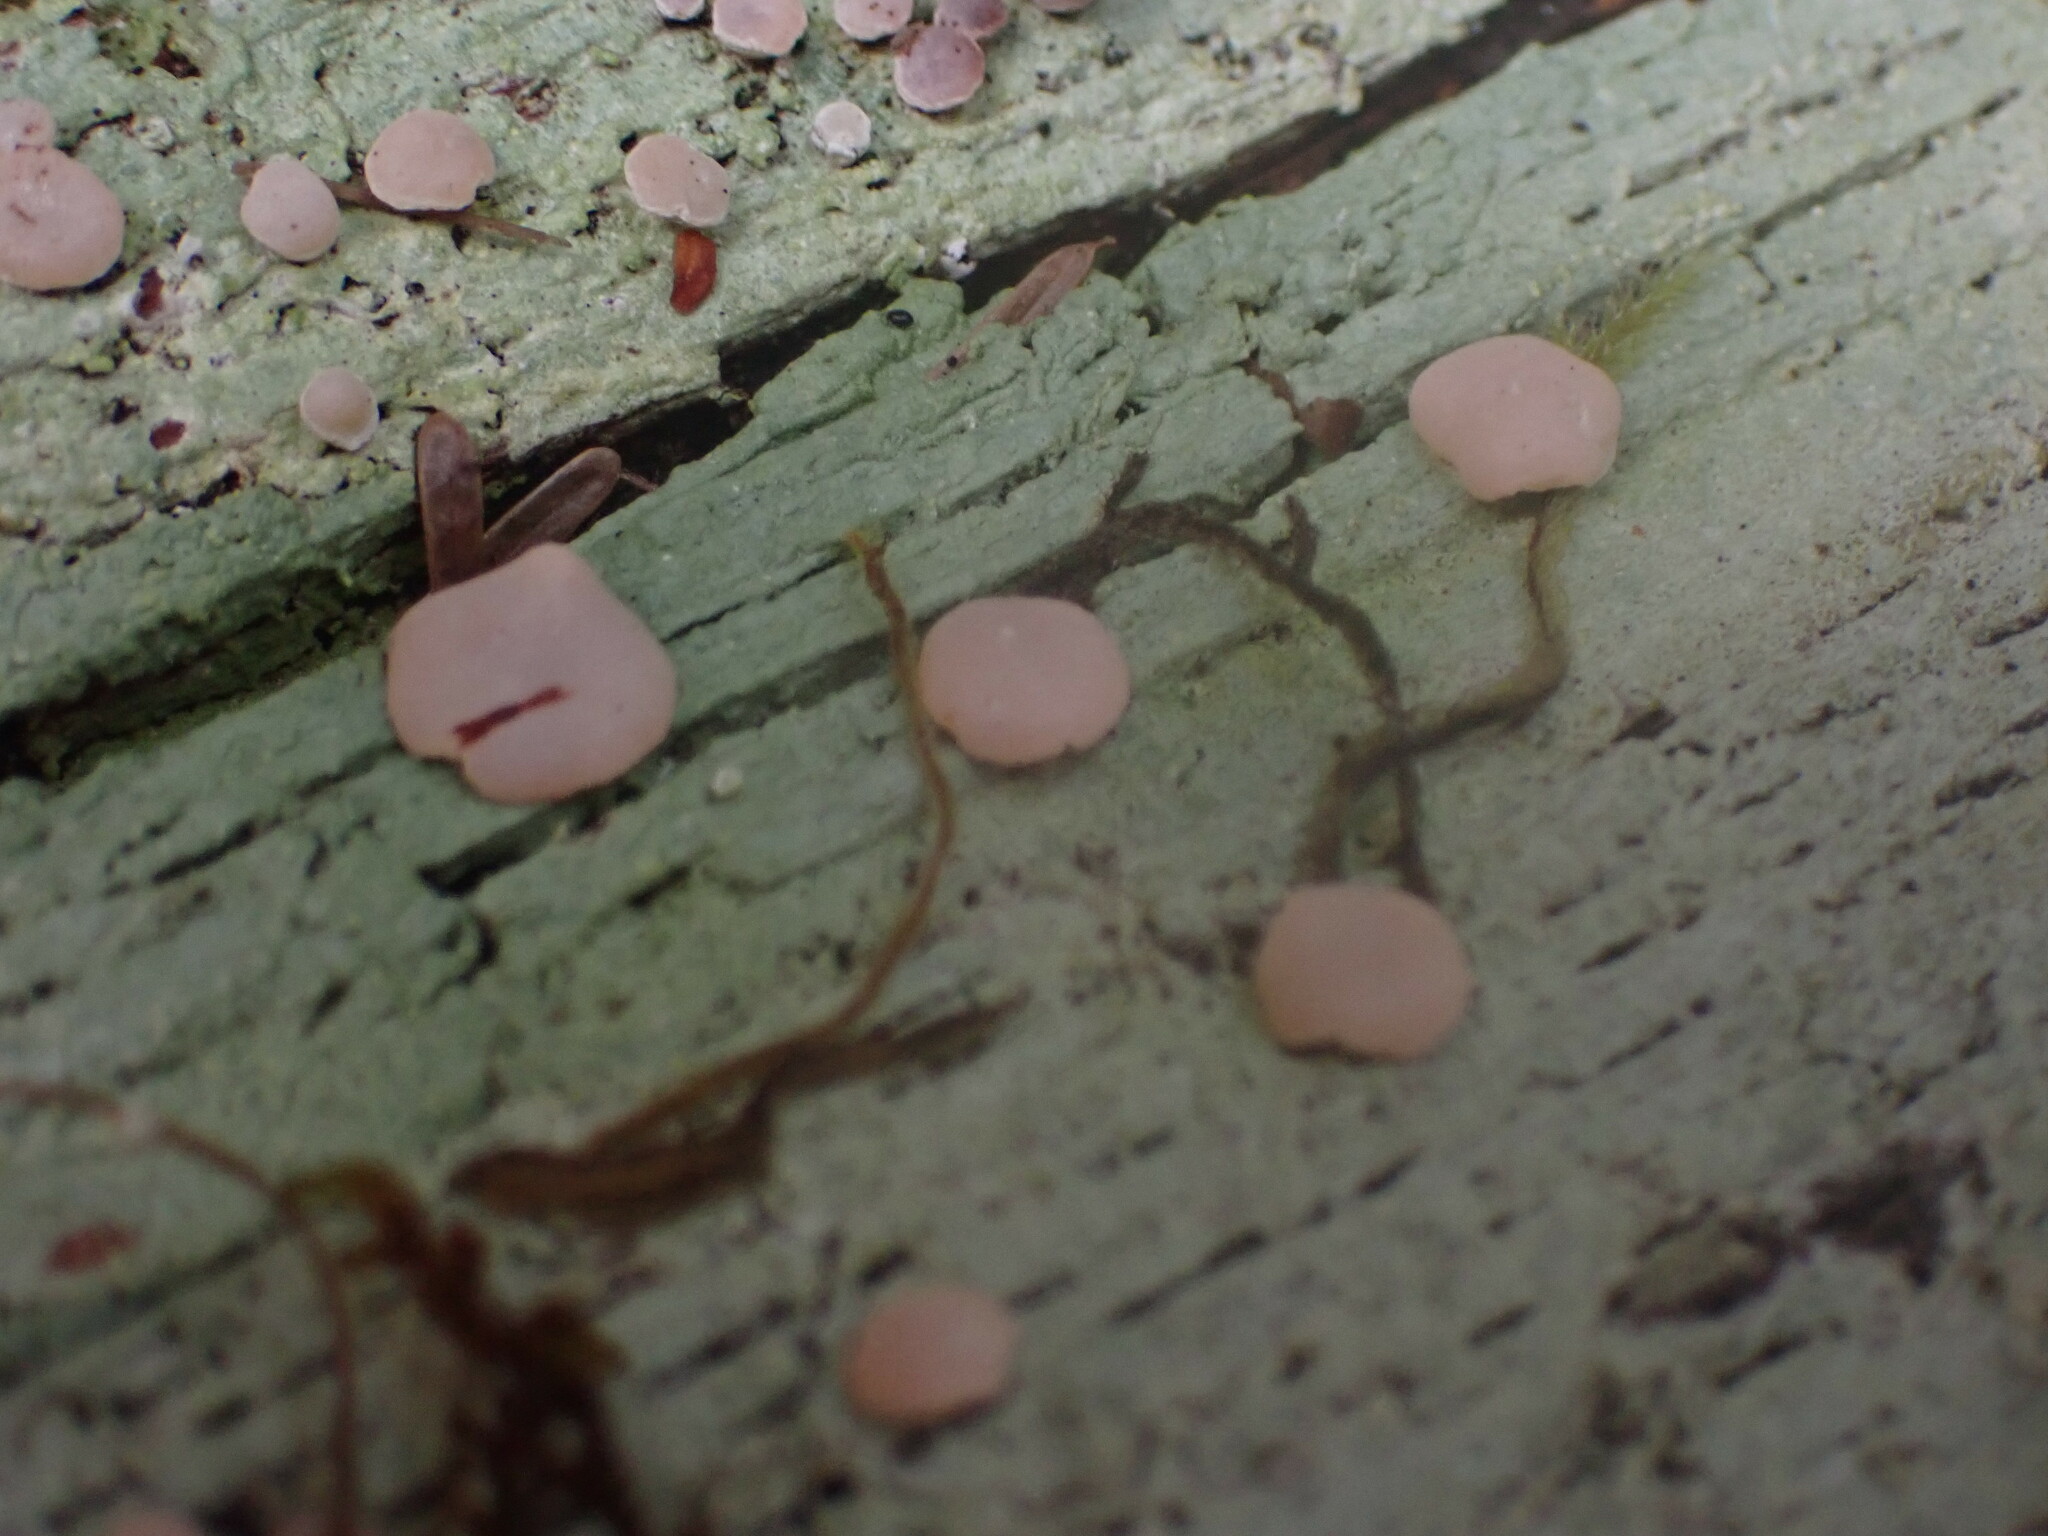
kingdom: Fungi
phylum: Ascomycota
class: Lecanoromycetes
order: Pertusariales
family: Icmadophilaceae
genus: Icmadophila
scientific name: Icmadophila ericetorum
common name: Candy lichen
